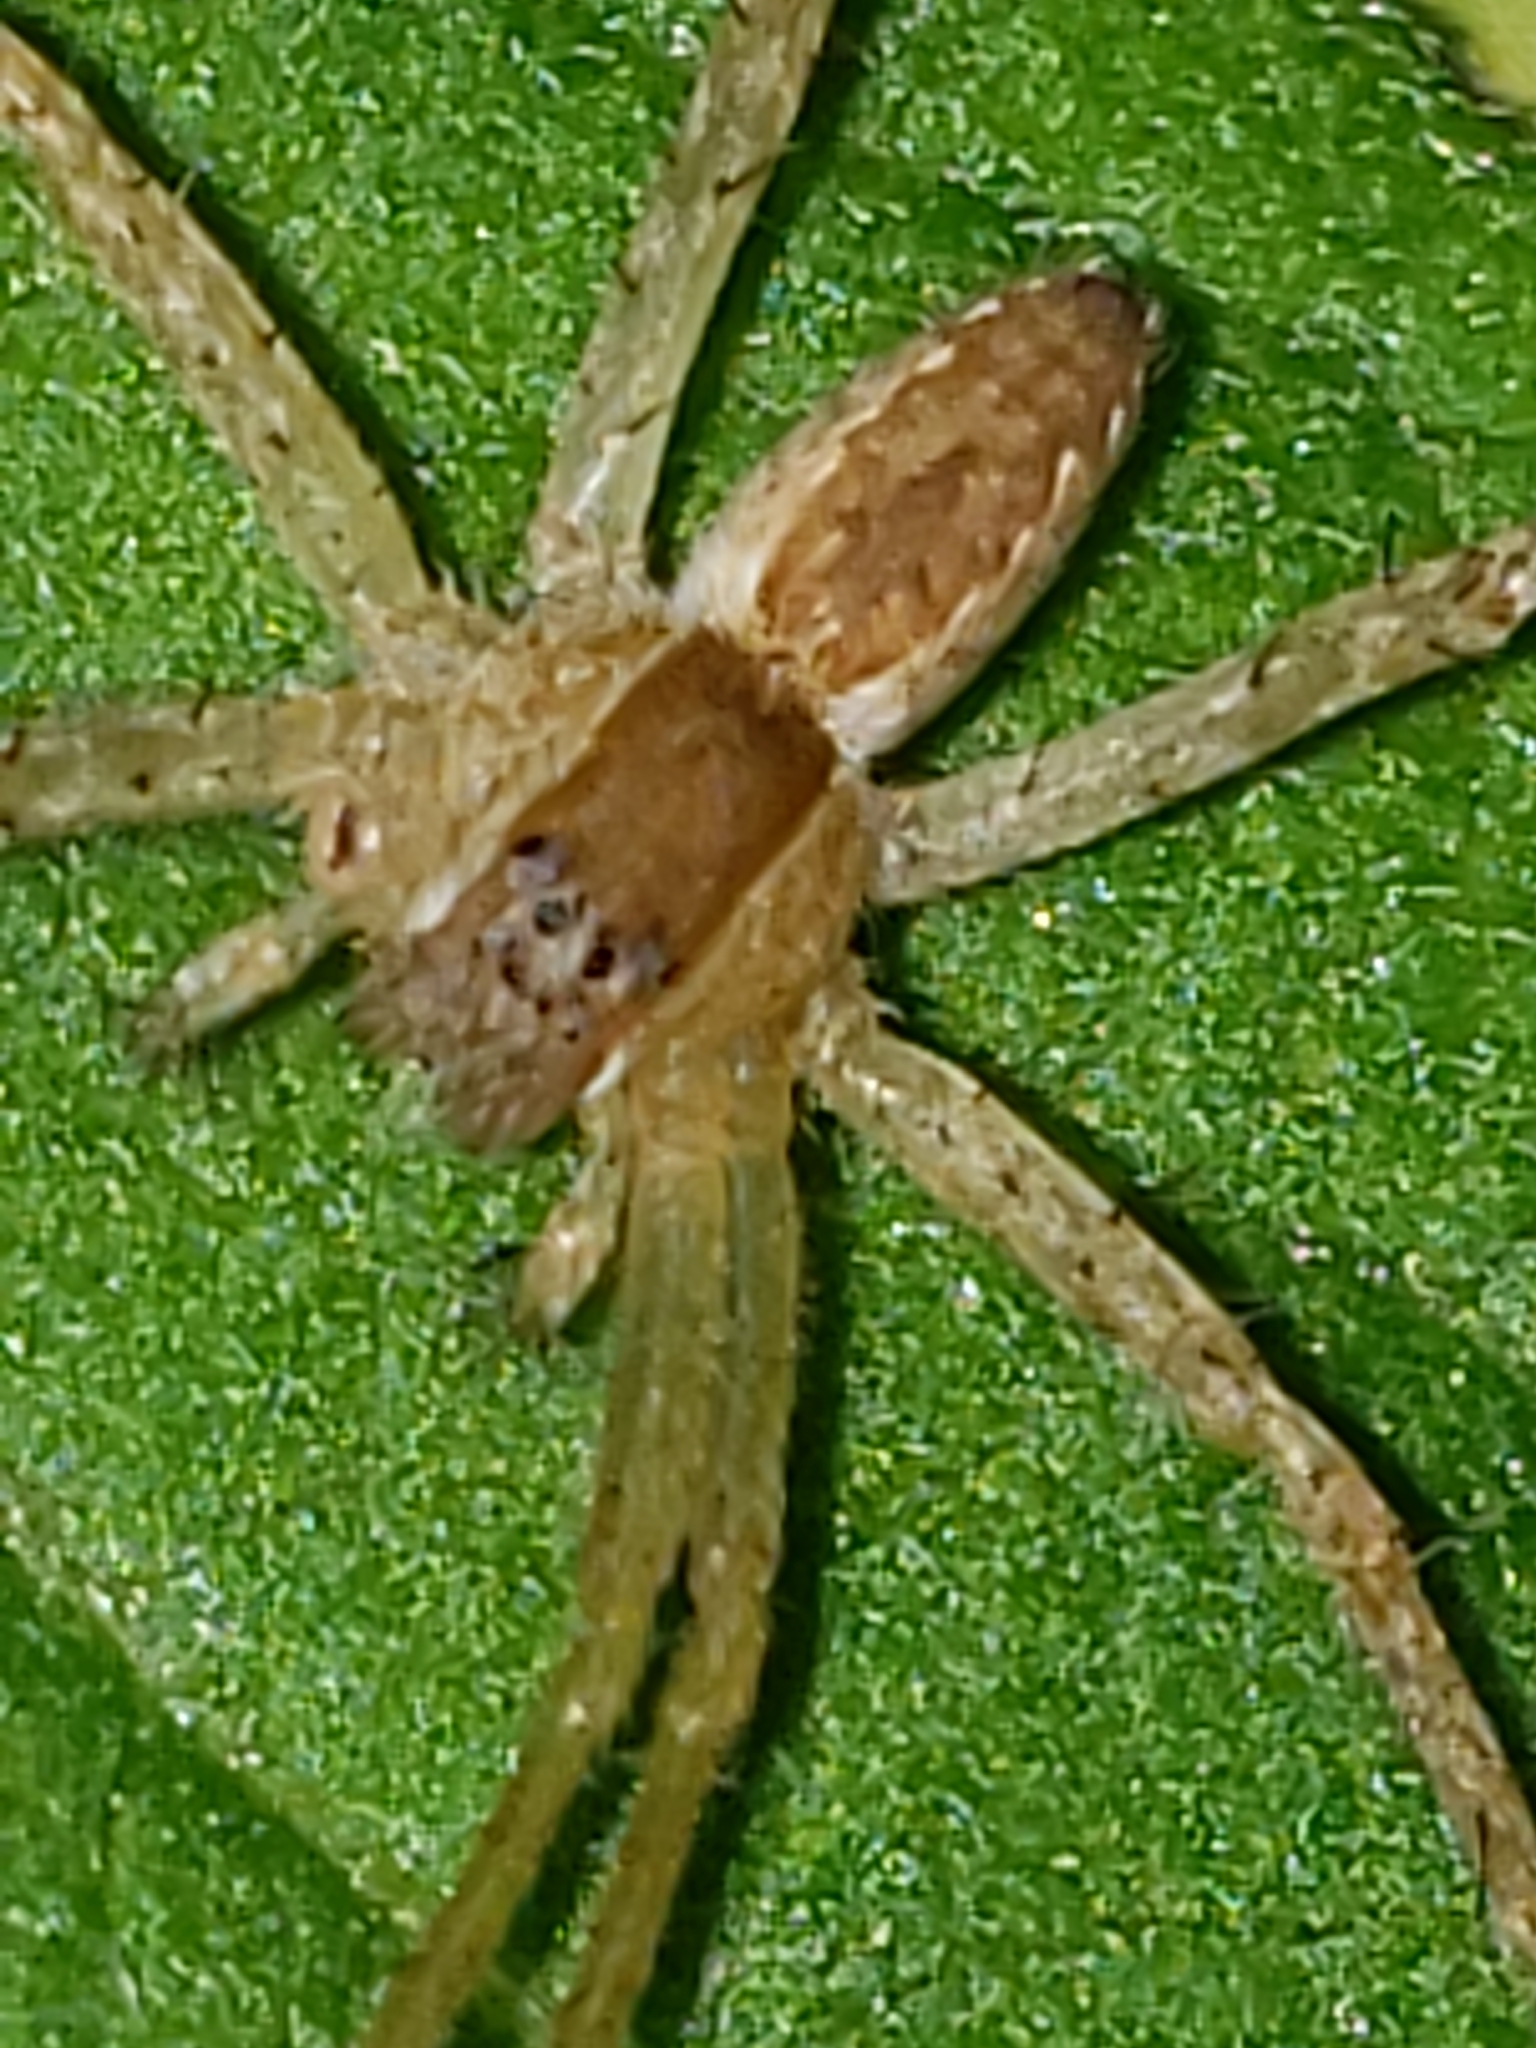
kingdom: Animalia
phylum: Arthropoda
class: Arachnida
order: Araneae
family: Pisauridae
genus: Pisaurina
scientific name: Pisaurina mira
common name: American nursery web spider
